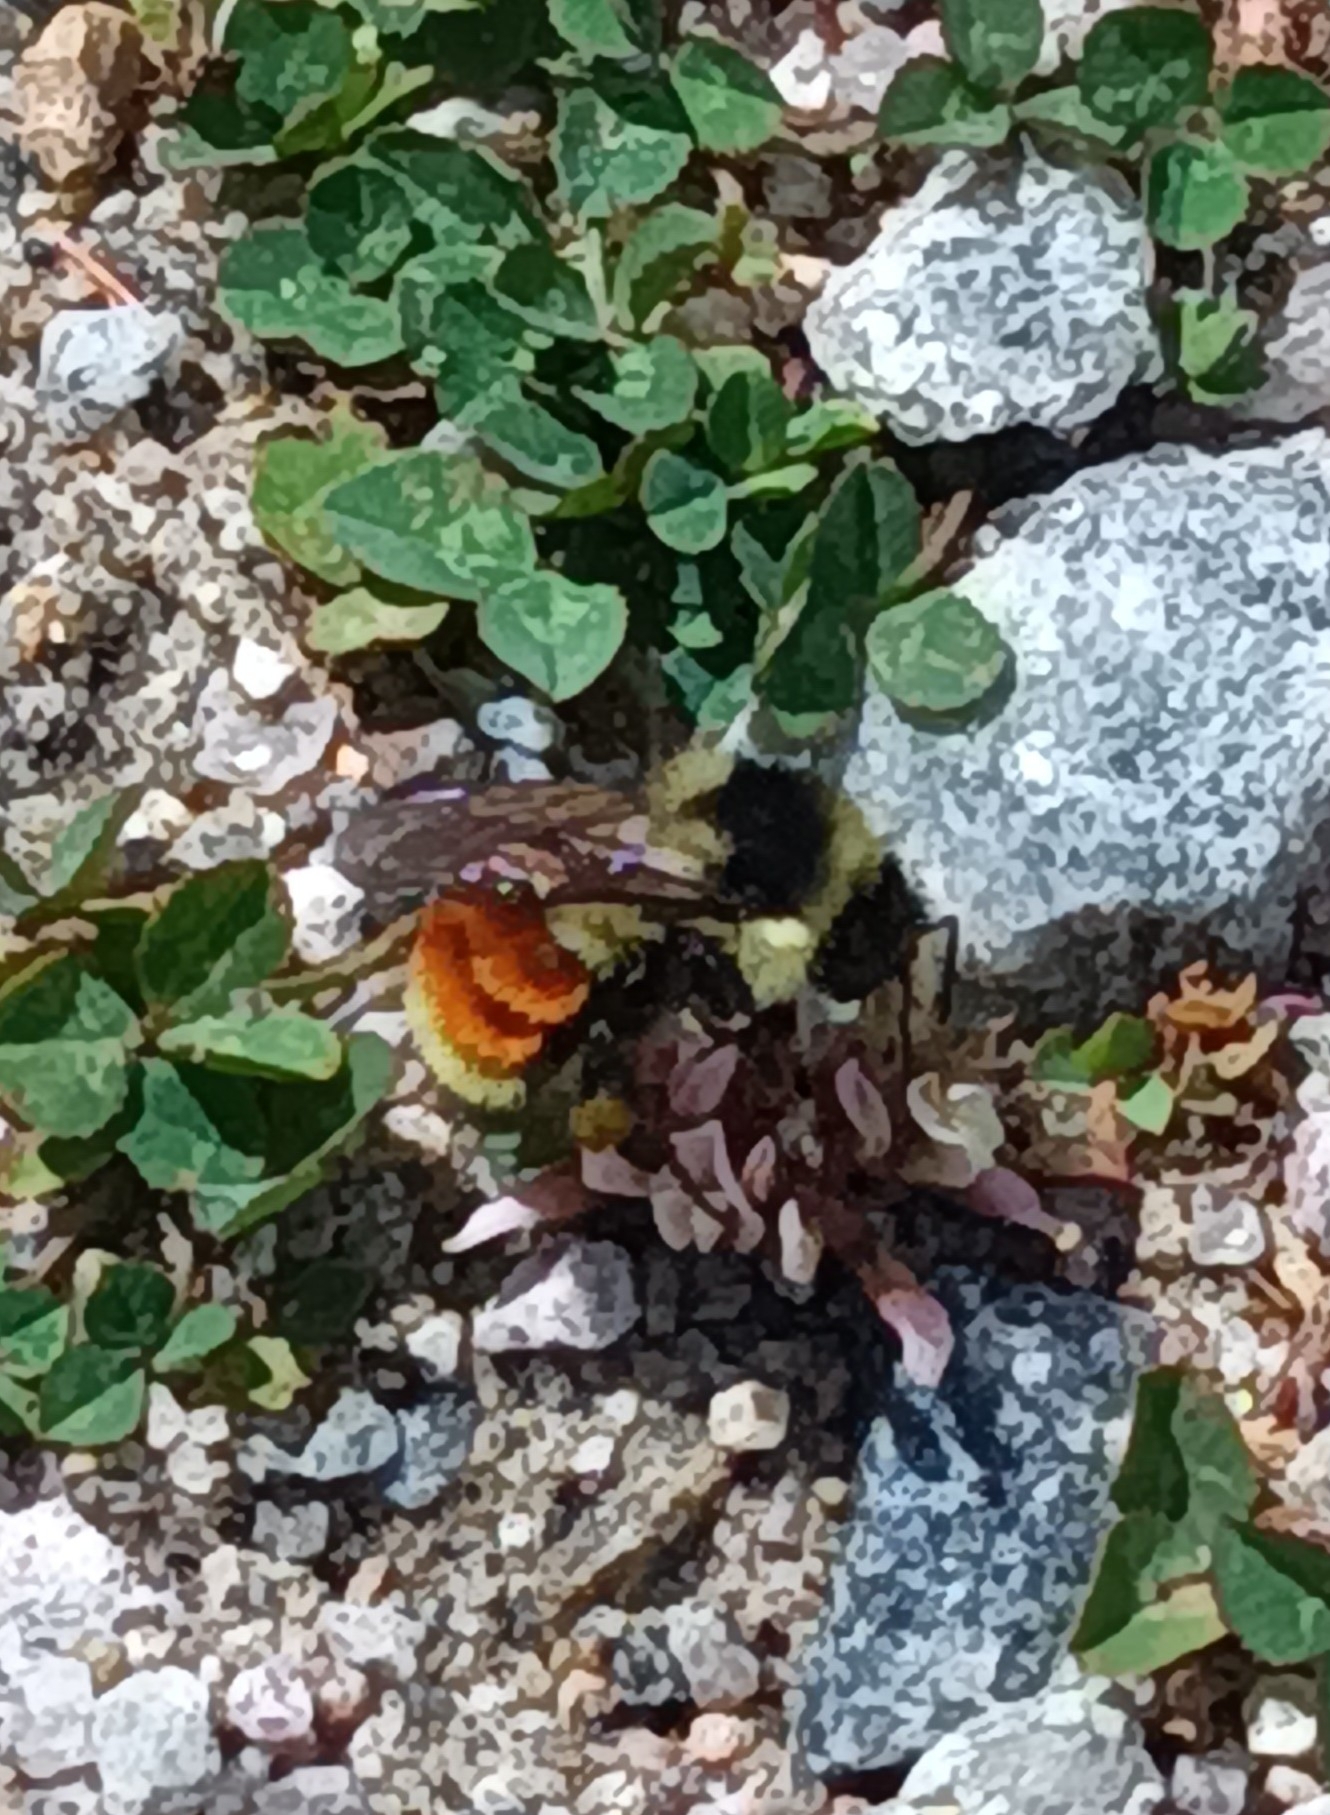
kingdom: Animalia
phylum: Arthropoda
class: Insecta
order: Hymenoptera
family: Apidae
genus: Bombus
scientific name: Bombus ternarius
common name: Tri-colored bumble bee
